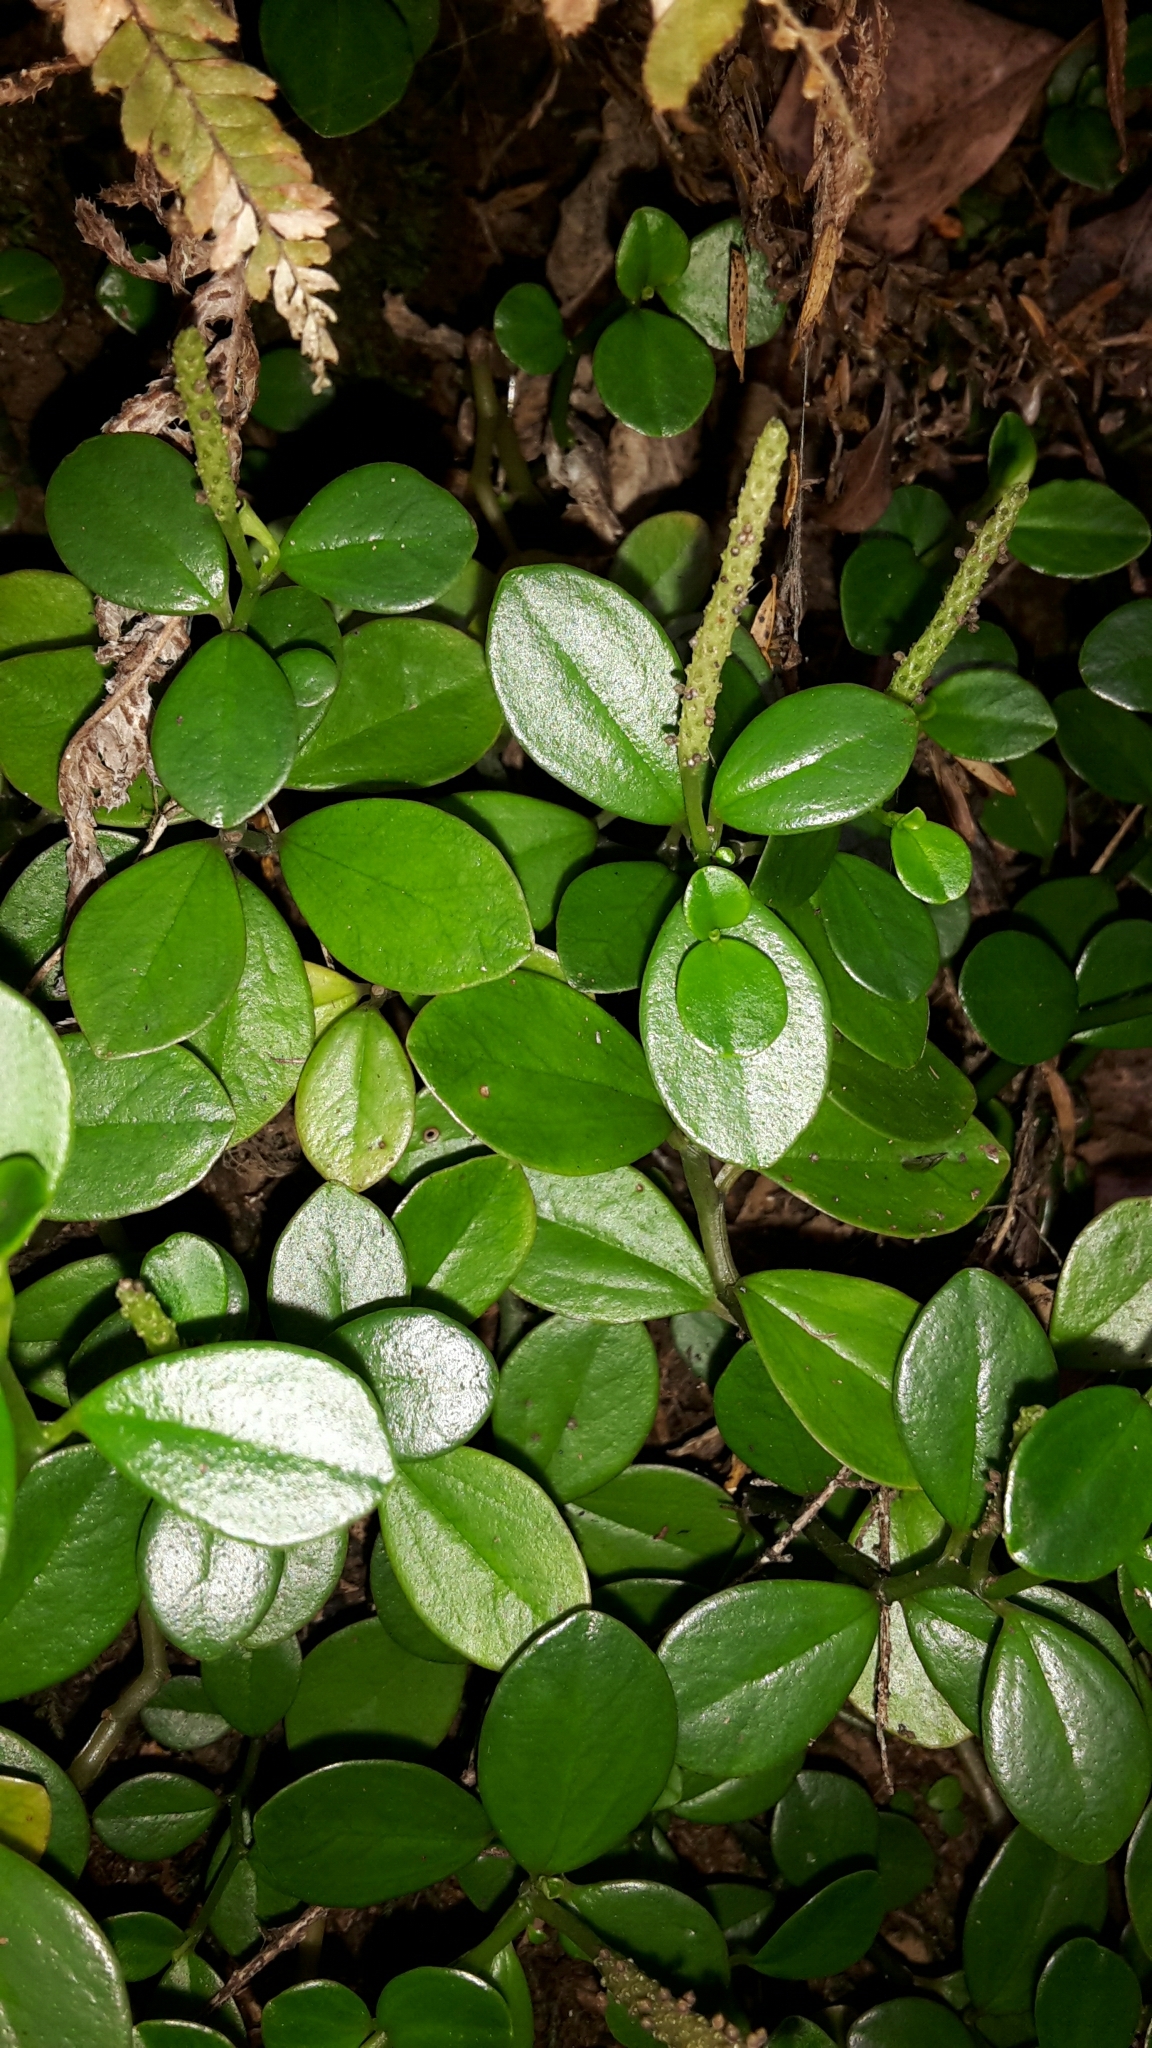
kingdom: Plantae
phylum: Tracheophyta
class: Magnoliopsida
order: Piperales
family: Piperaceae
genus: Peperomia
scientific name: Peperomia urvilleana
